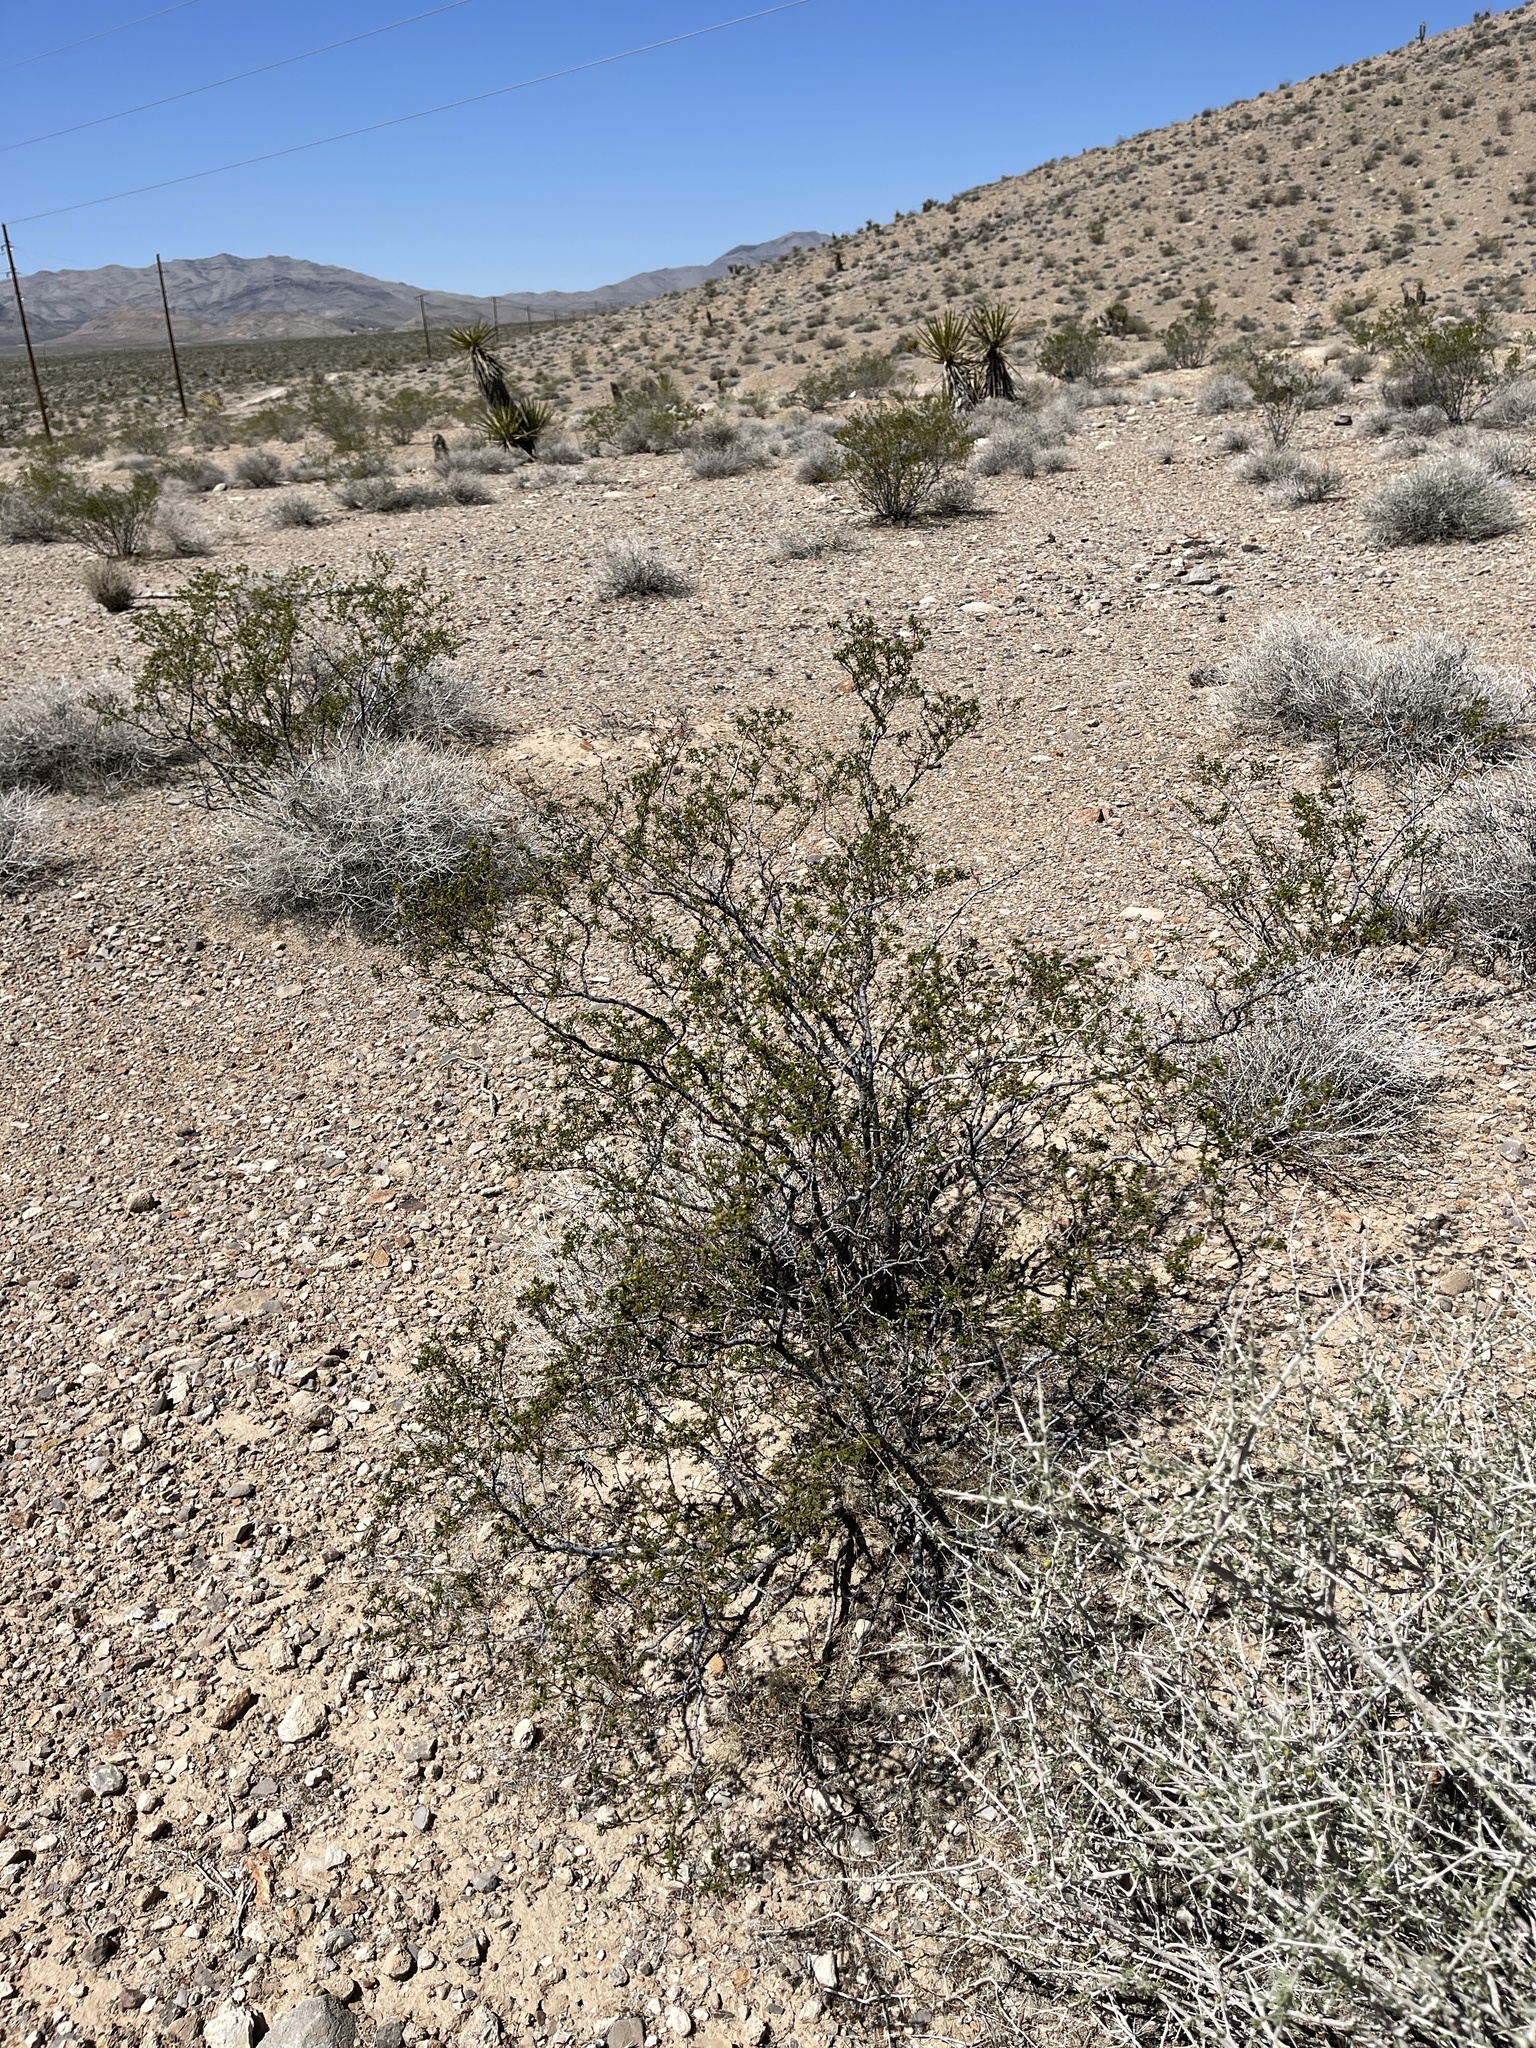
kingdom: Plantae
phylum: Tracheophyta
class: Magnoliopsida
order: Zygophyllales
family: Zygophyllaceae
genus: Larrea
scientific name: Larrea tridentata
